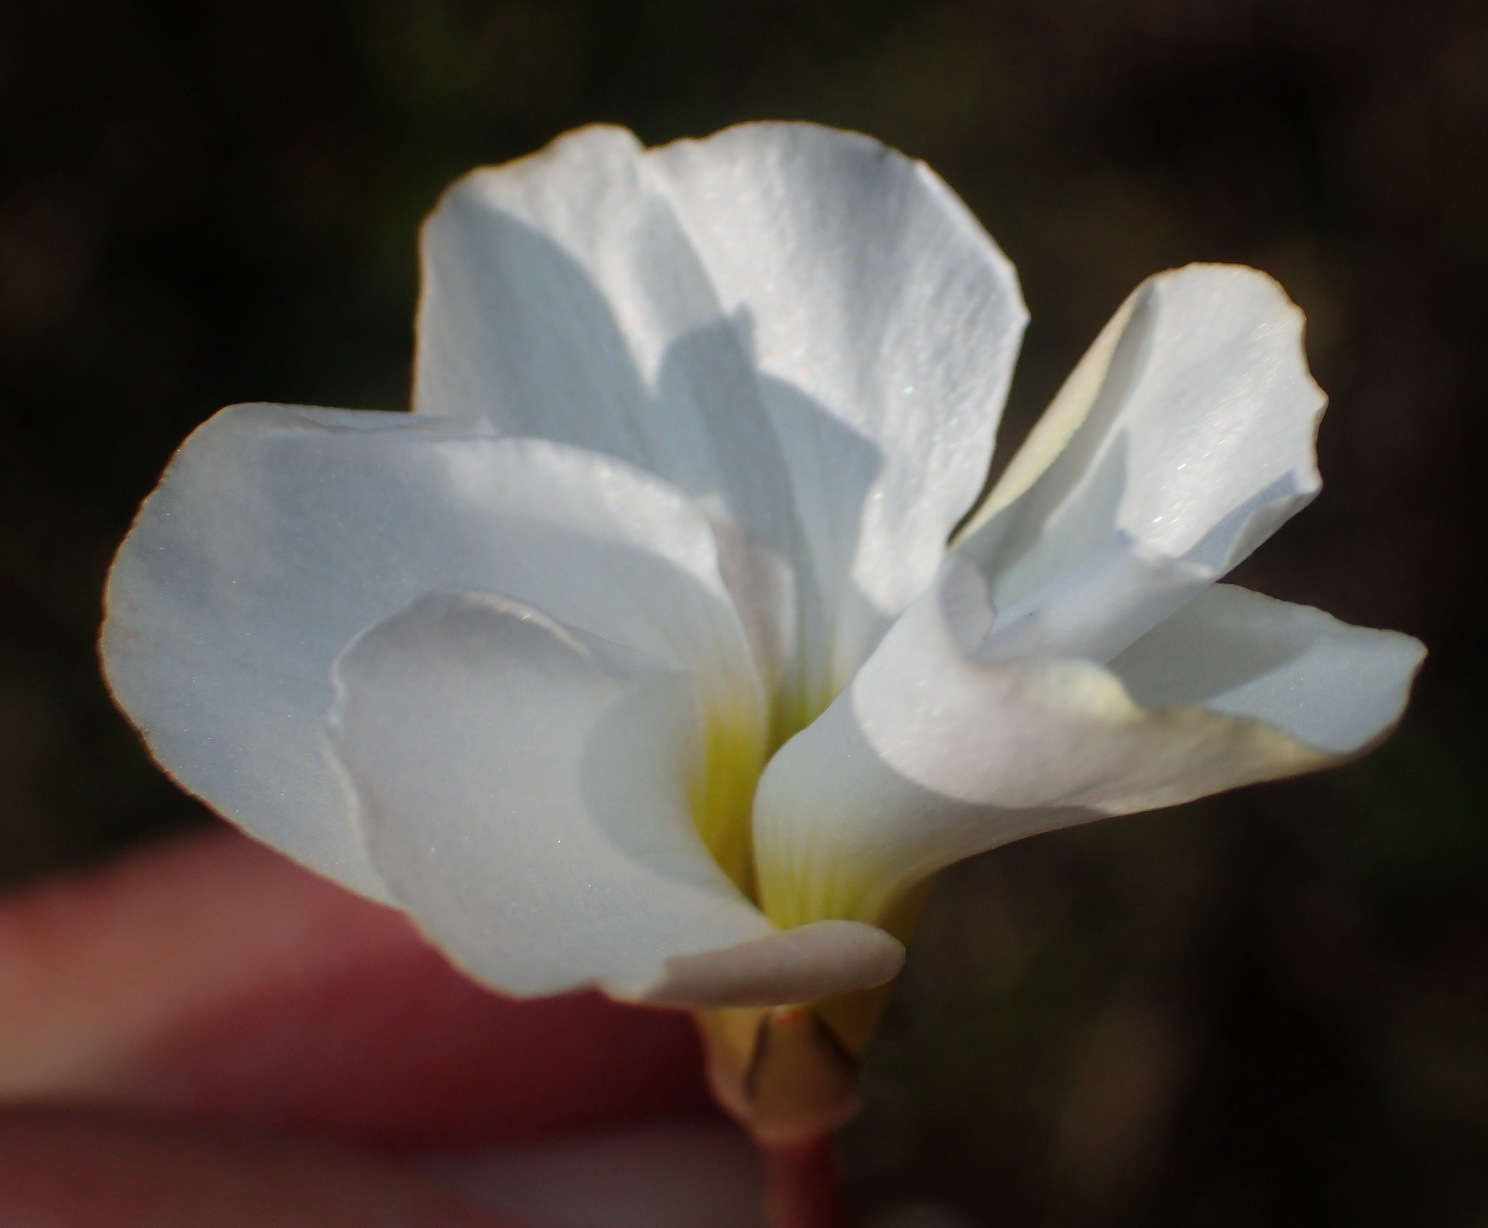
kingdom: Plantae
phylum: Tracheophyta
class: Magnoliopsida
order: Oxalidales
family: Oxalidaceae
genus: Oxalis
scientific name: Oxalis depressa
